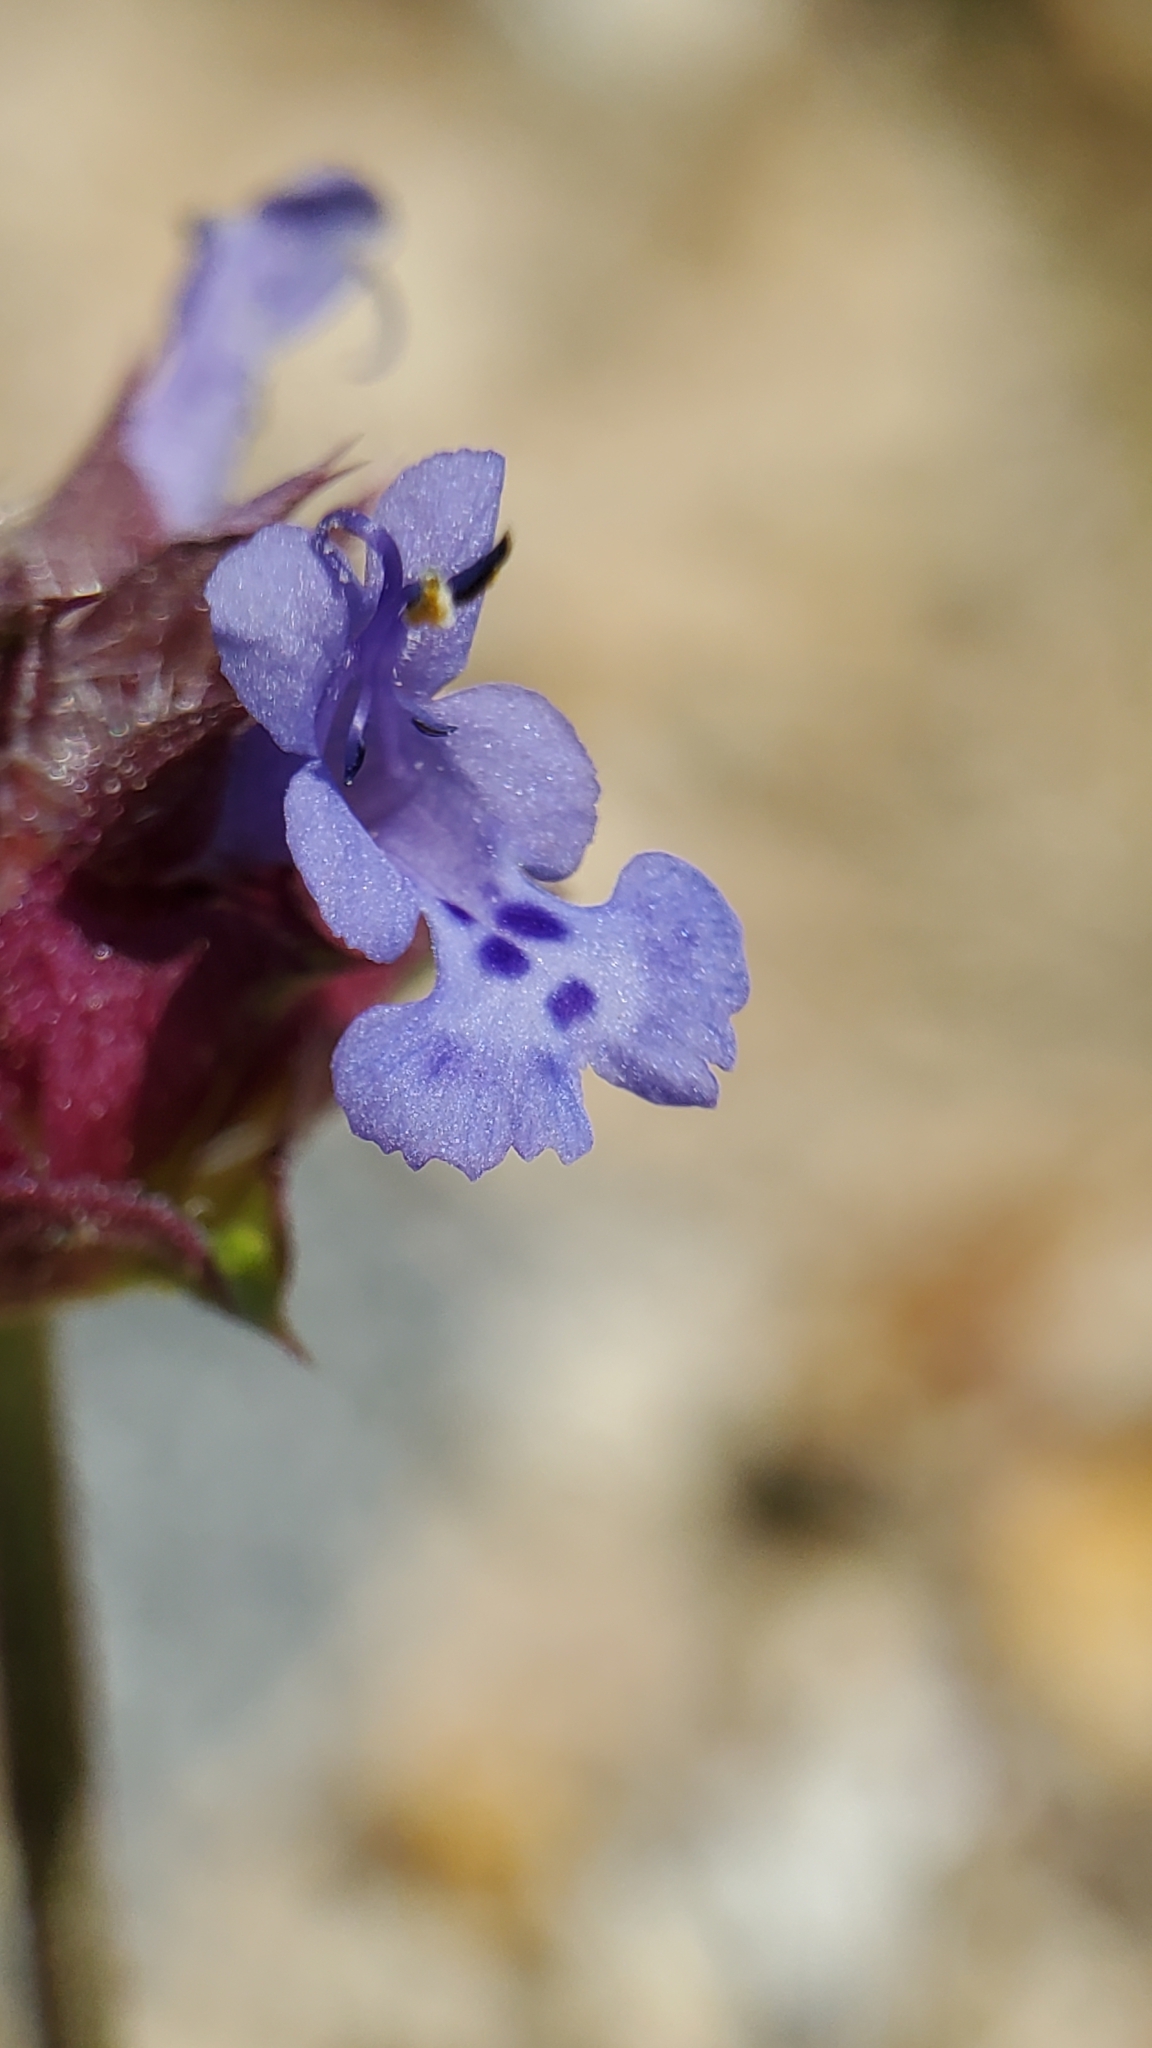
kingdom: Plantae
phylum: Tracheophyta
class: Magnoliopsida
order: Lamiales
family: Lamiaceae
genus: Salvia
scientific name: Salvia columbariae
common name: Chia
